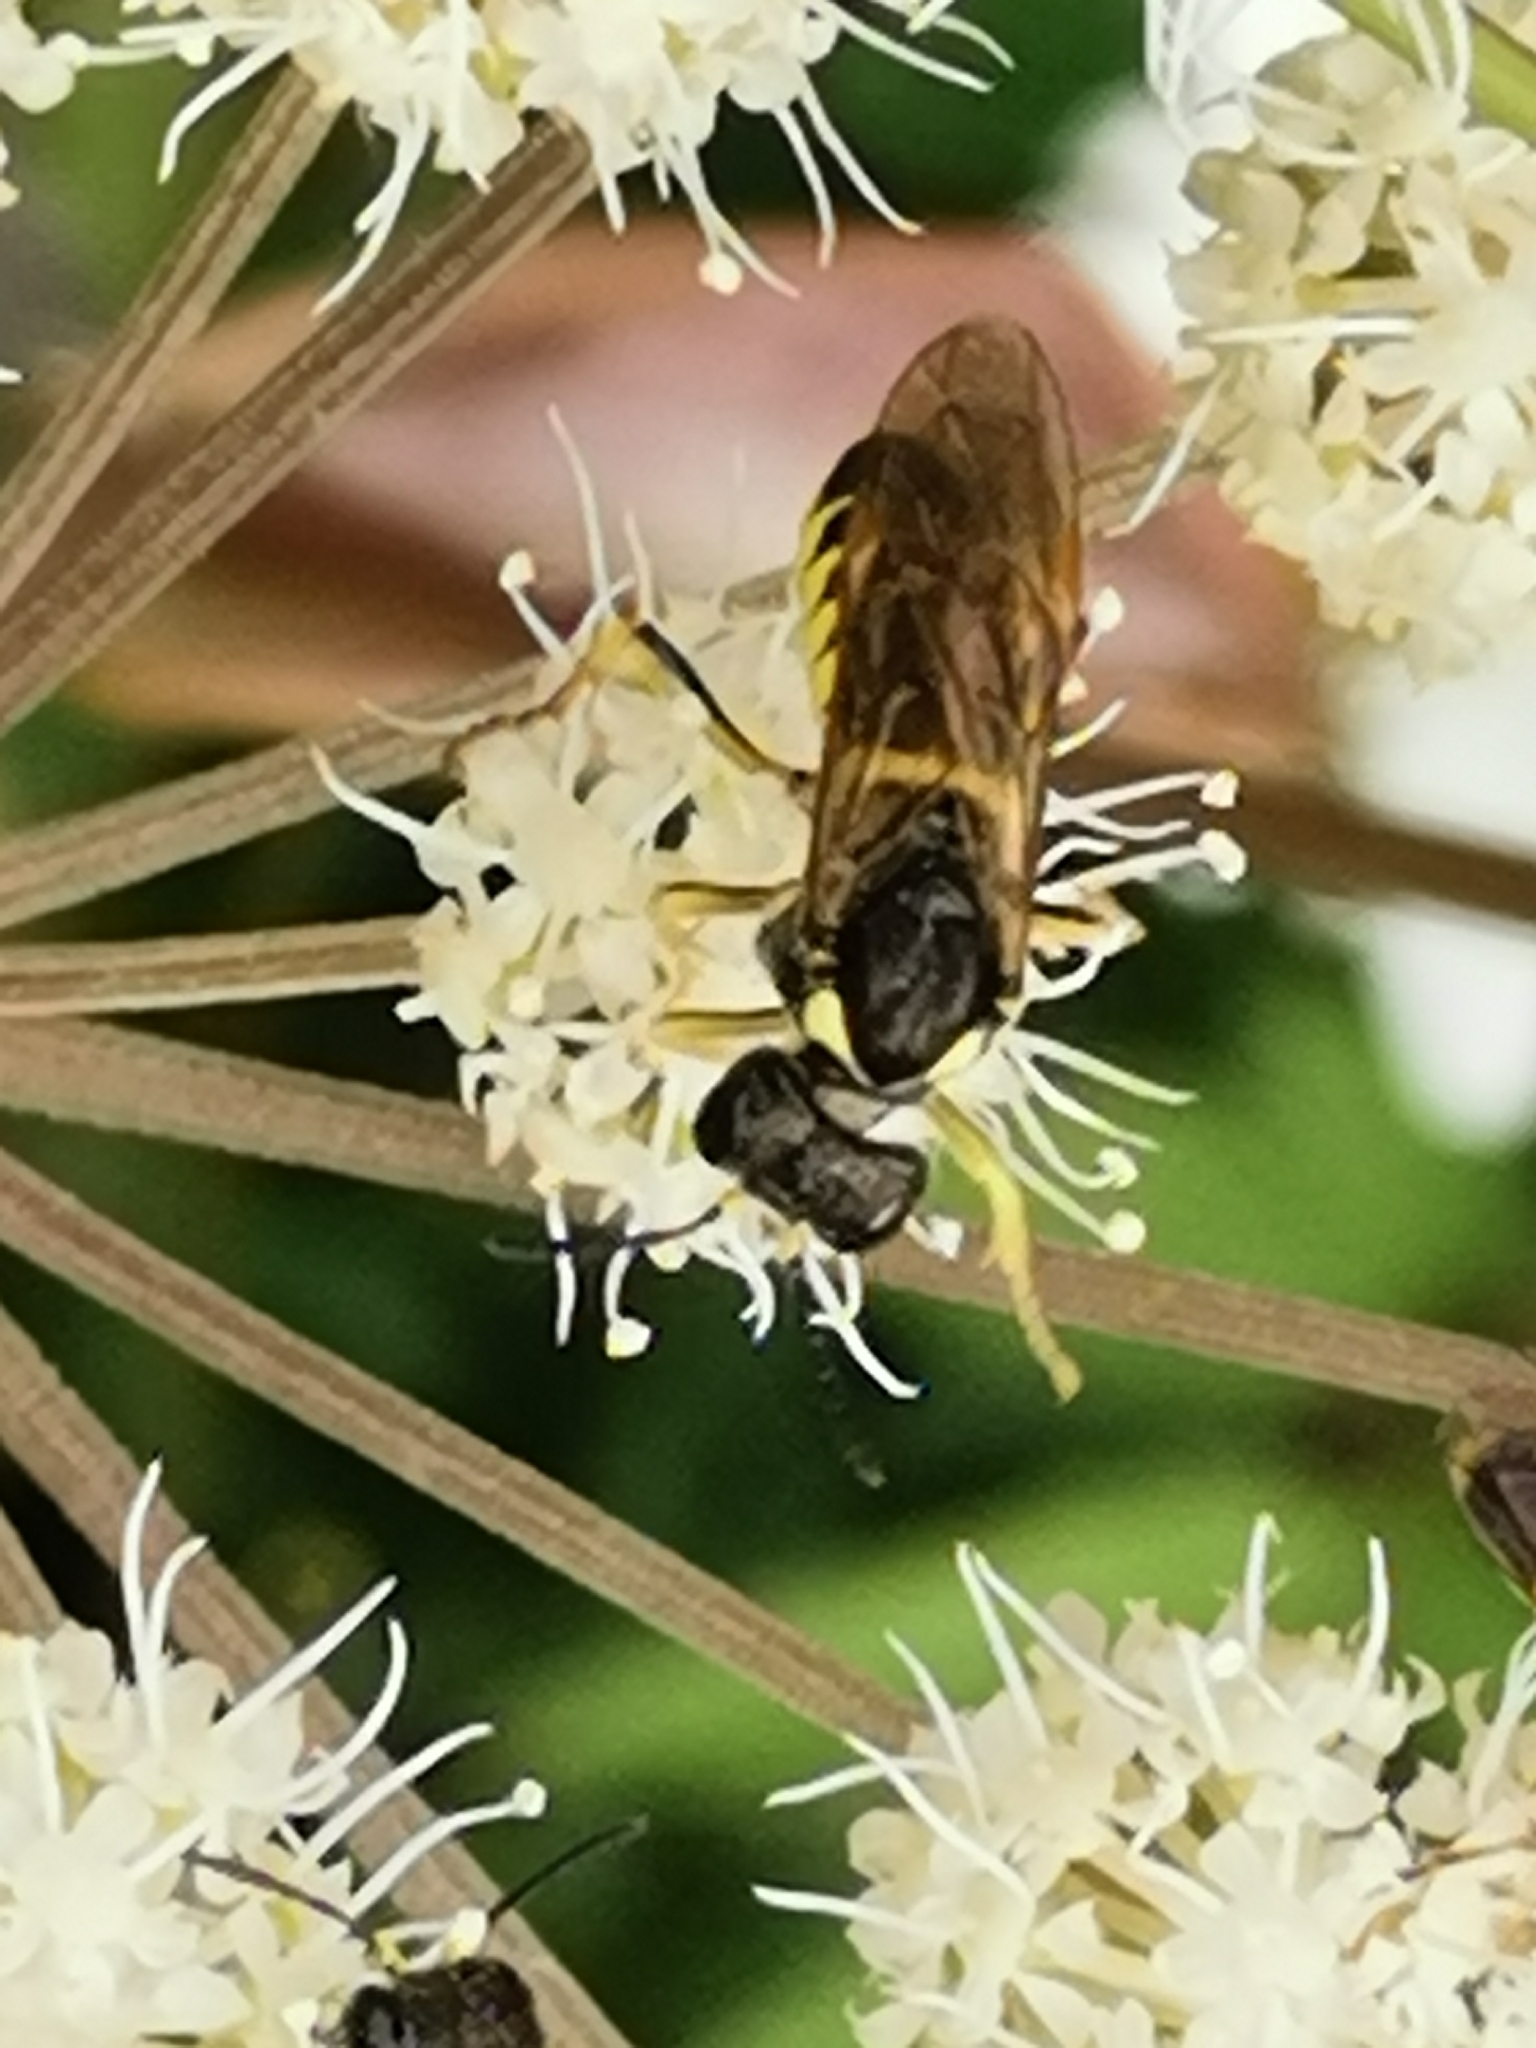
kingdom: Animalia
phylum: Arthropoda
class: Insecta
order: Hymenoptera
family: Tenthredinidae
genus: Tenthredo
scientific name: Tenthredo notha
